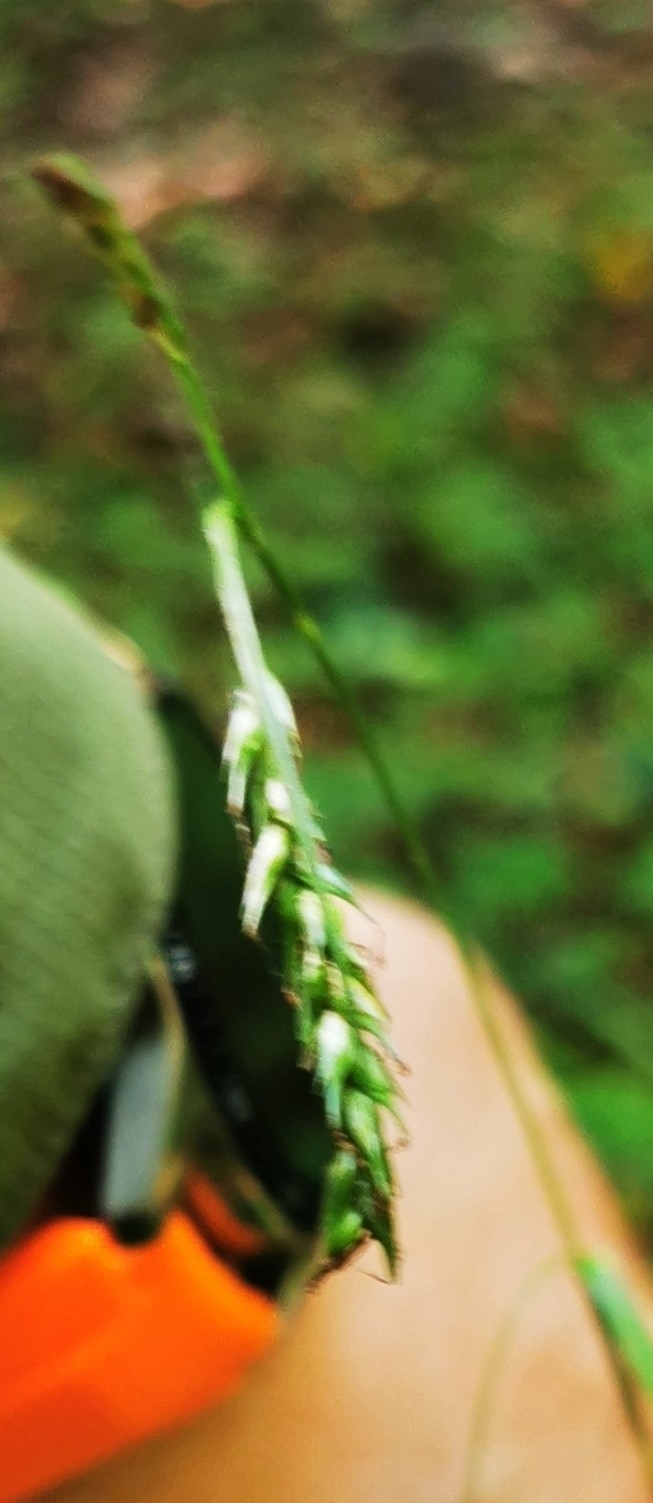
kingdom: Plantae
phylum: Tracheophyta
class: Liliopsida
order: Poales
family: Cyperaceae
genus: Carex
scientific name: Carex sylvatica
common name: Wood-sedge
